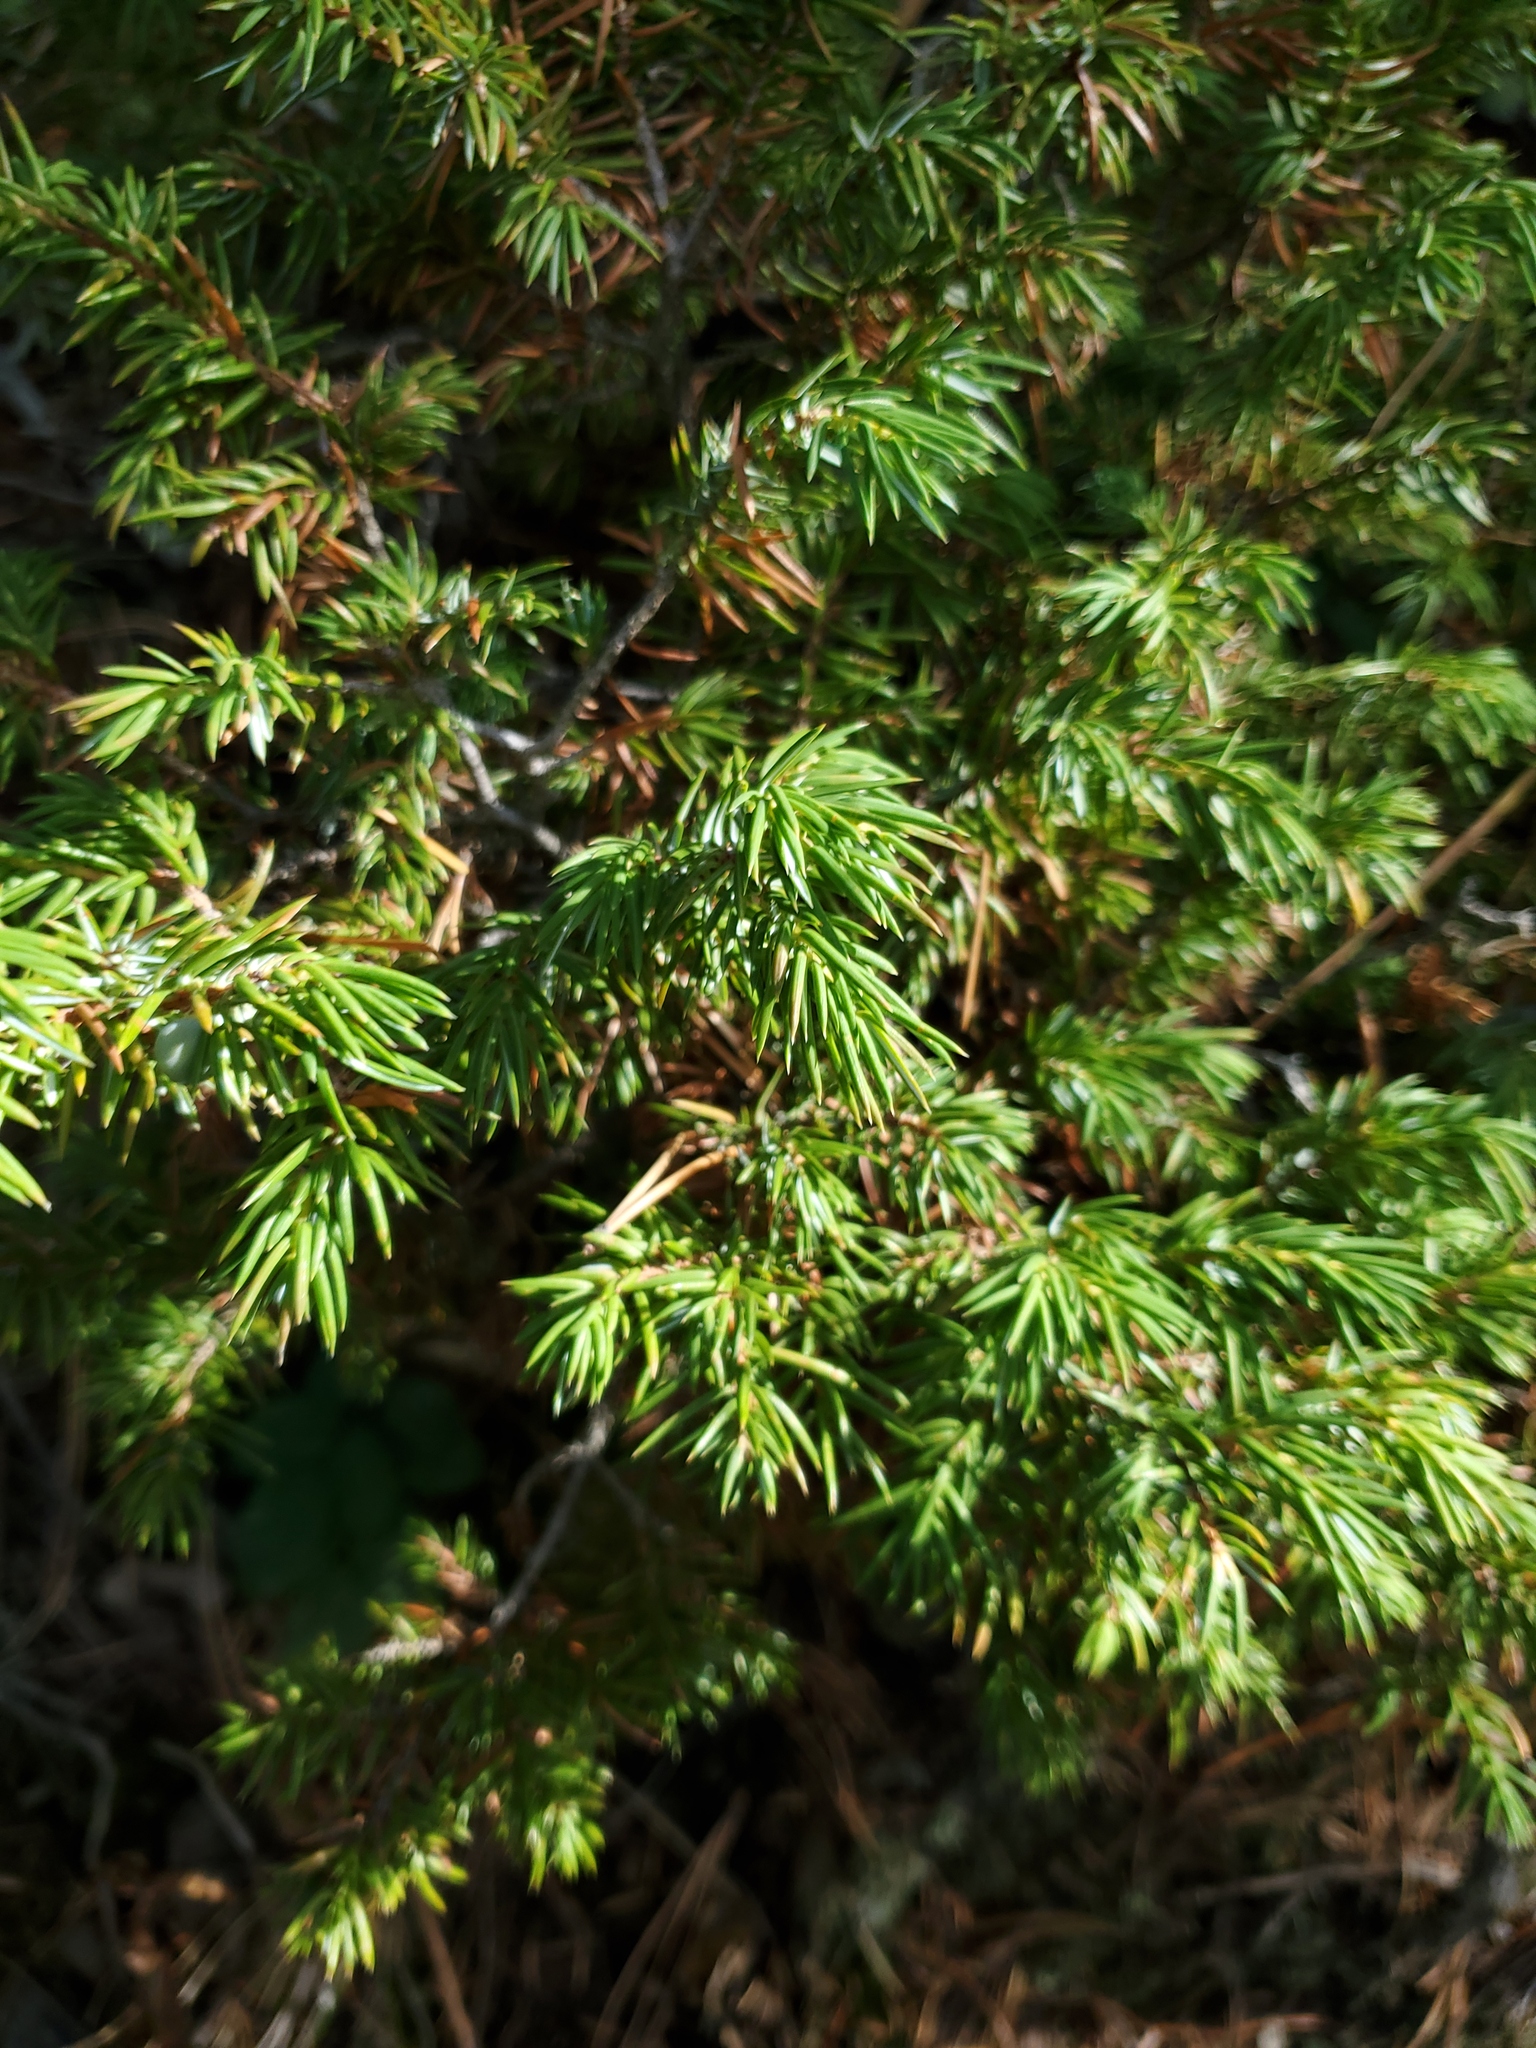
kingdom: Plantae
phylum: Tracheophyta
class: Pinopsida
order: Pinales
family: Cupressaceae
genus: Juniperus
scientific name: Juniperus communis
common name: Common juniper
